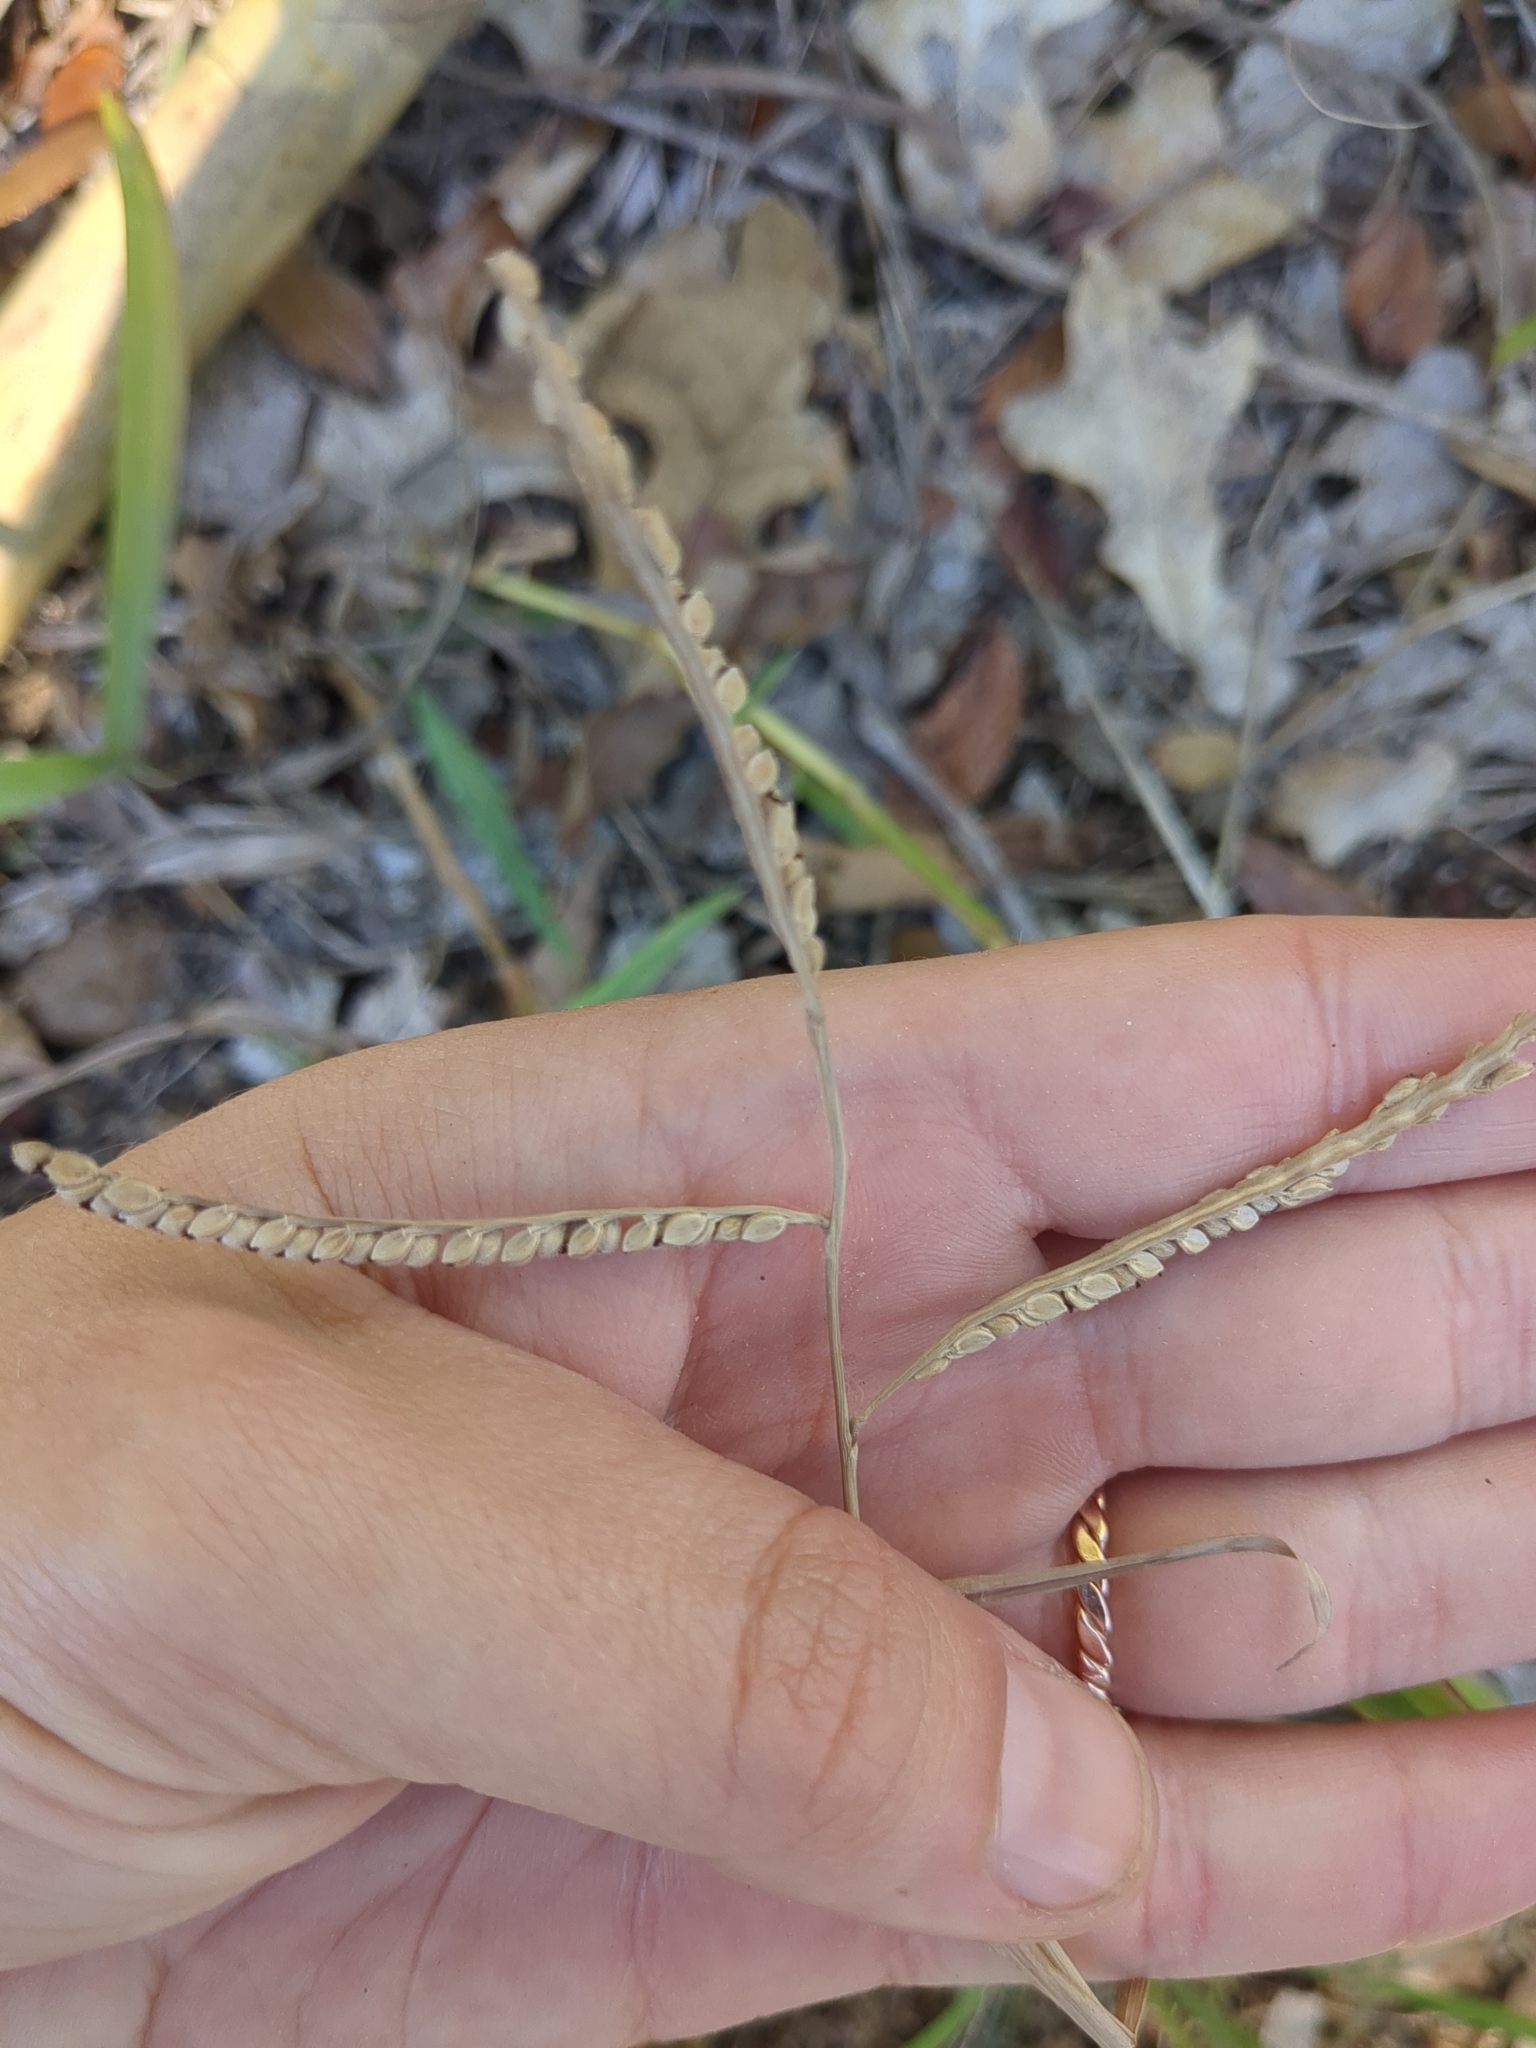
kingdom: Plantae
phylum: Tracheophyta
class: Liliopsida
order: Poales
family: Poaceae
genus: Paspalum
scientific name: Paspalum pubiflorum
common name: Hairy-seed paspalum
